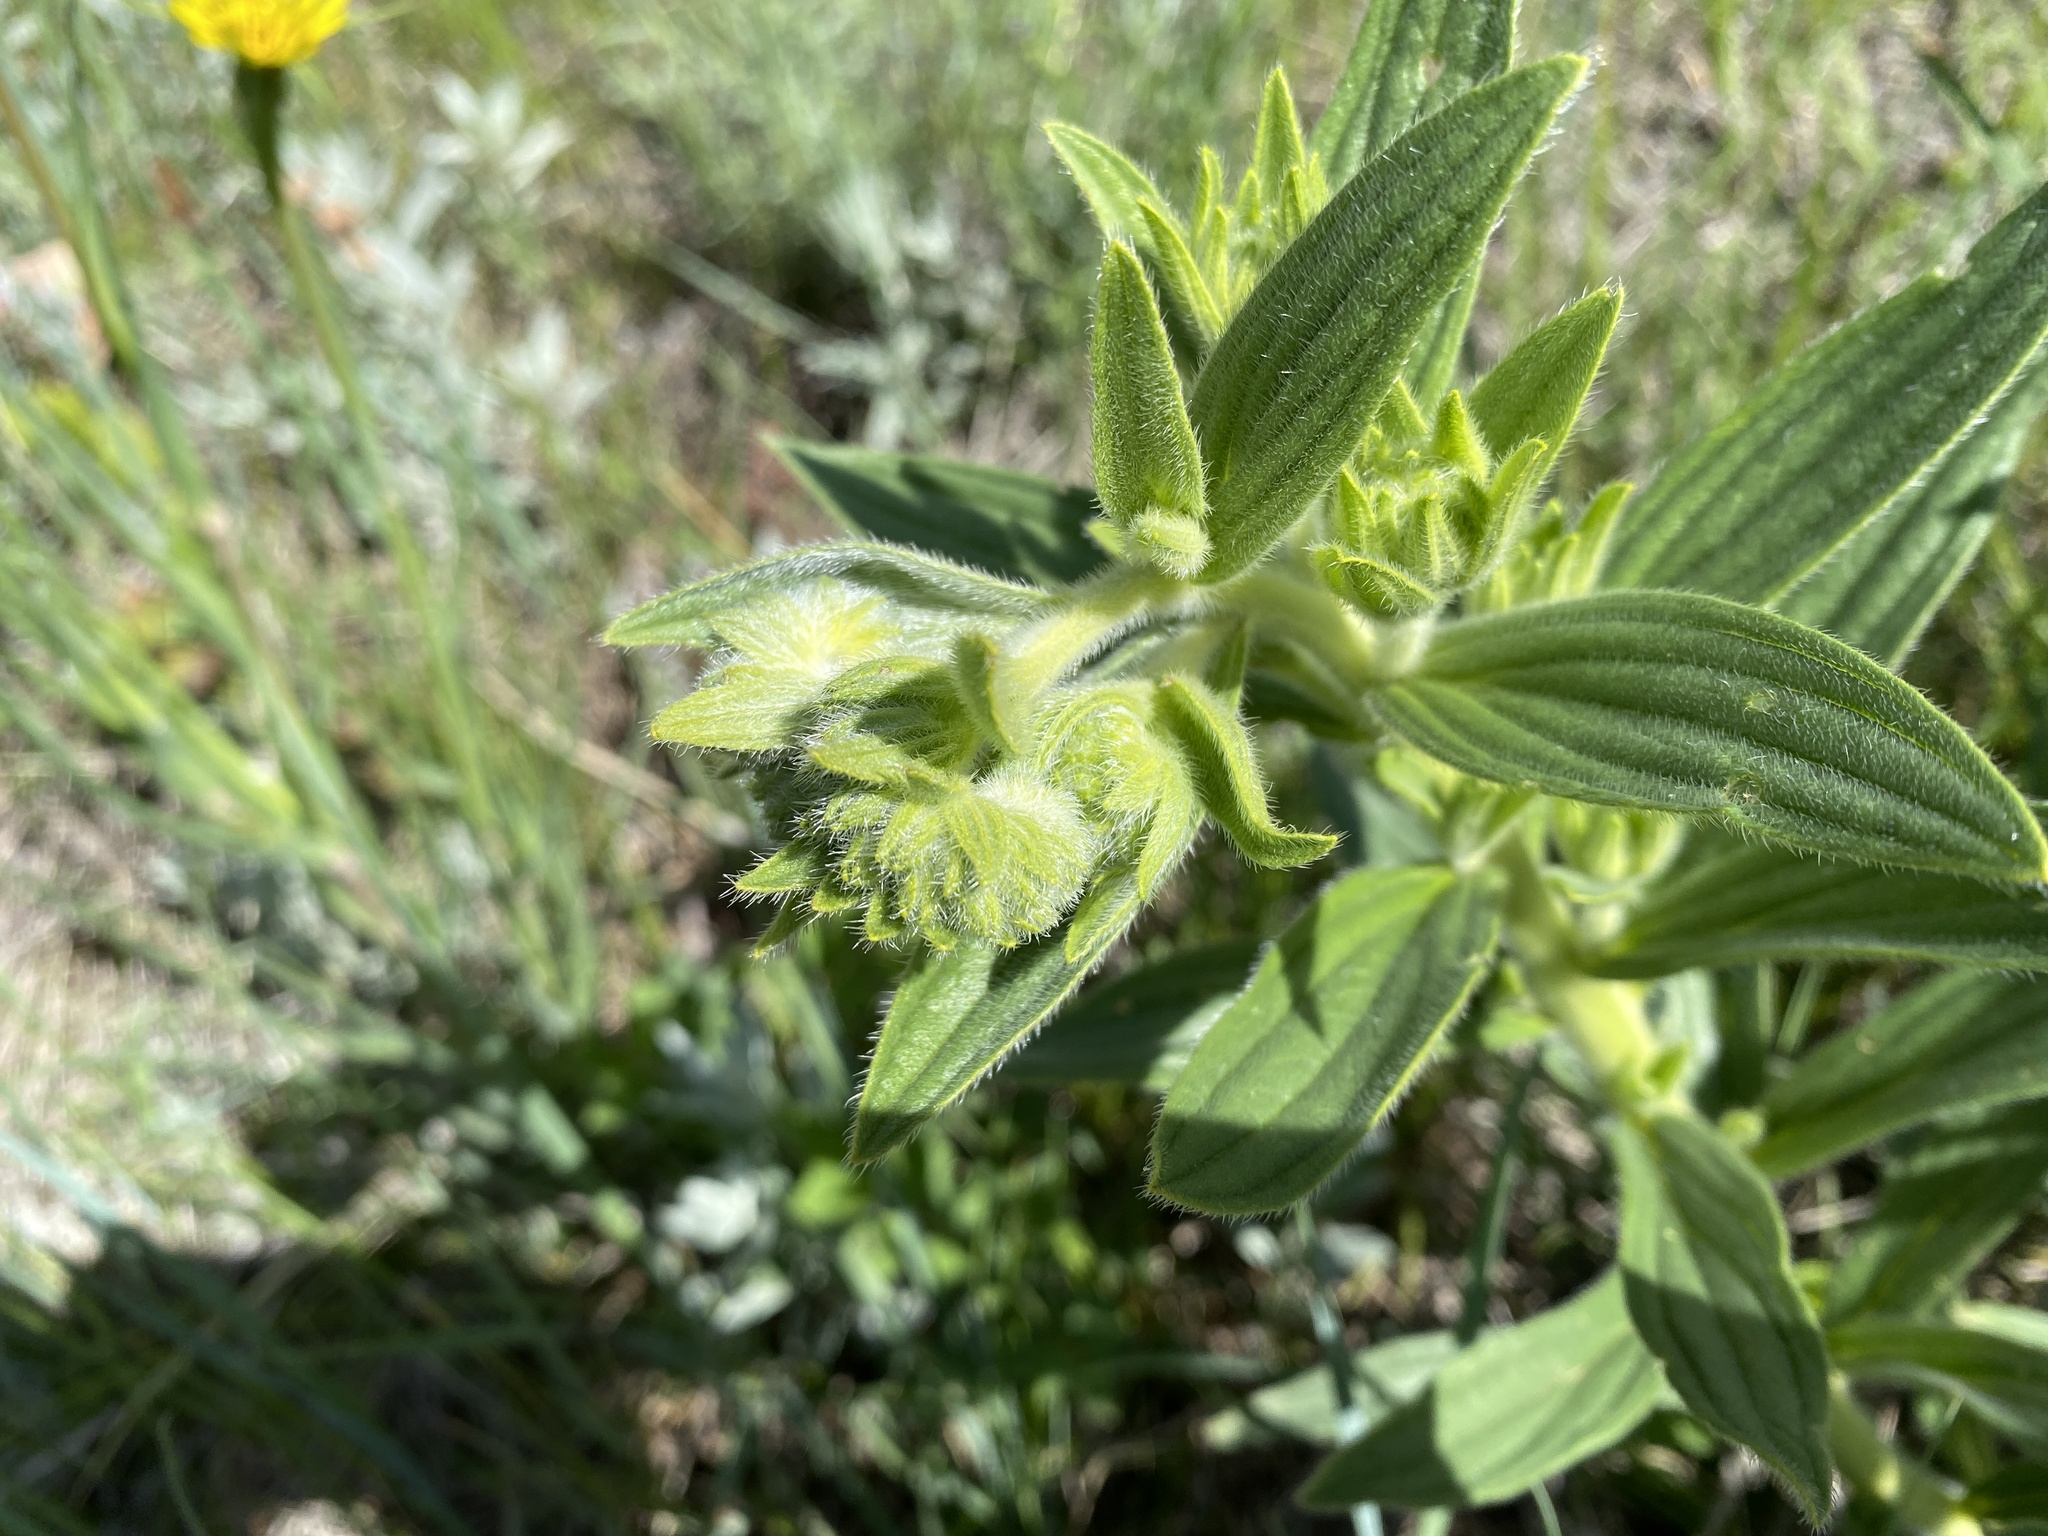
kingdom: Plantae
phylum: Tracheophyta
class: Magnoliopsida
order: Boraginales
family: Boraginaceae
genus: Lithospermum
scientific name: Lithospermum occidentale
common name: Western false gromwell
